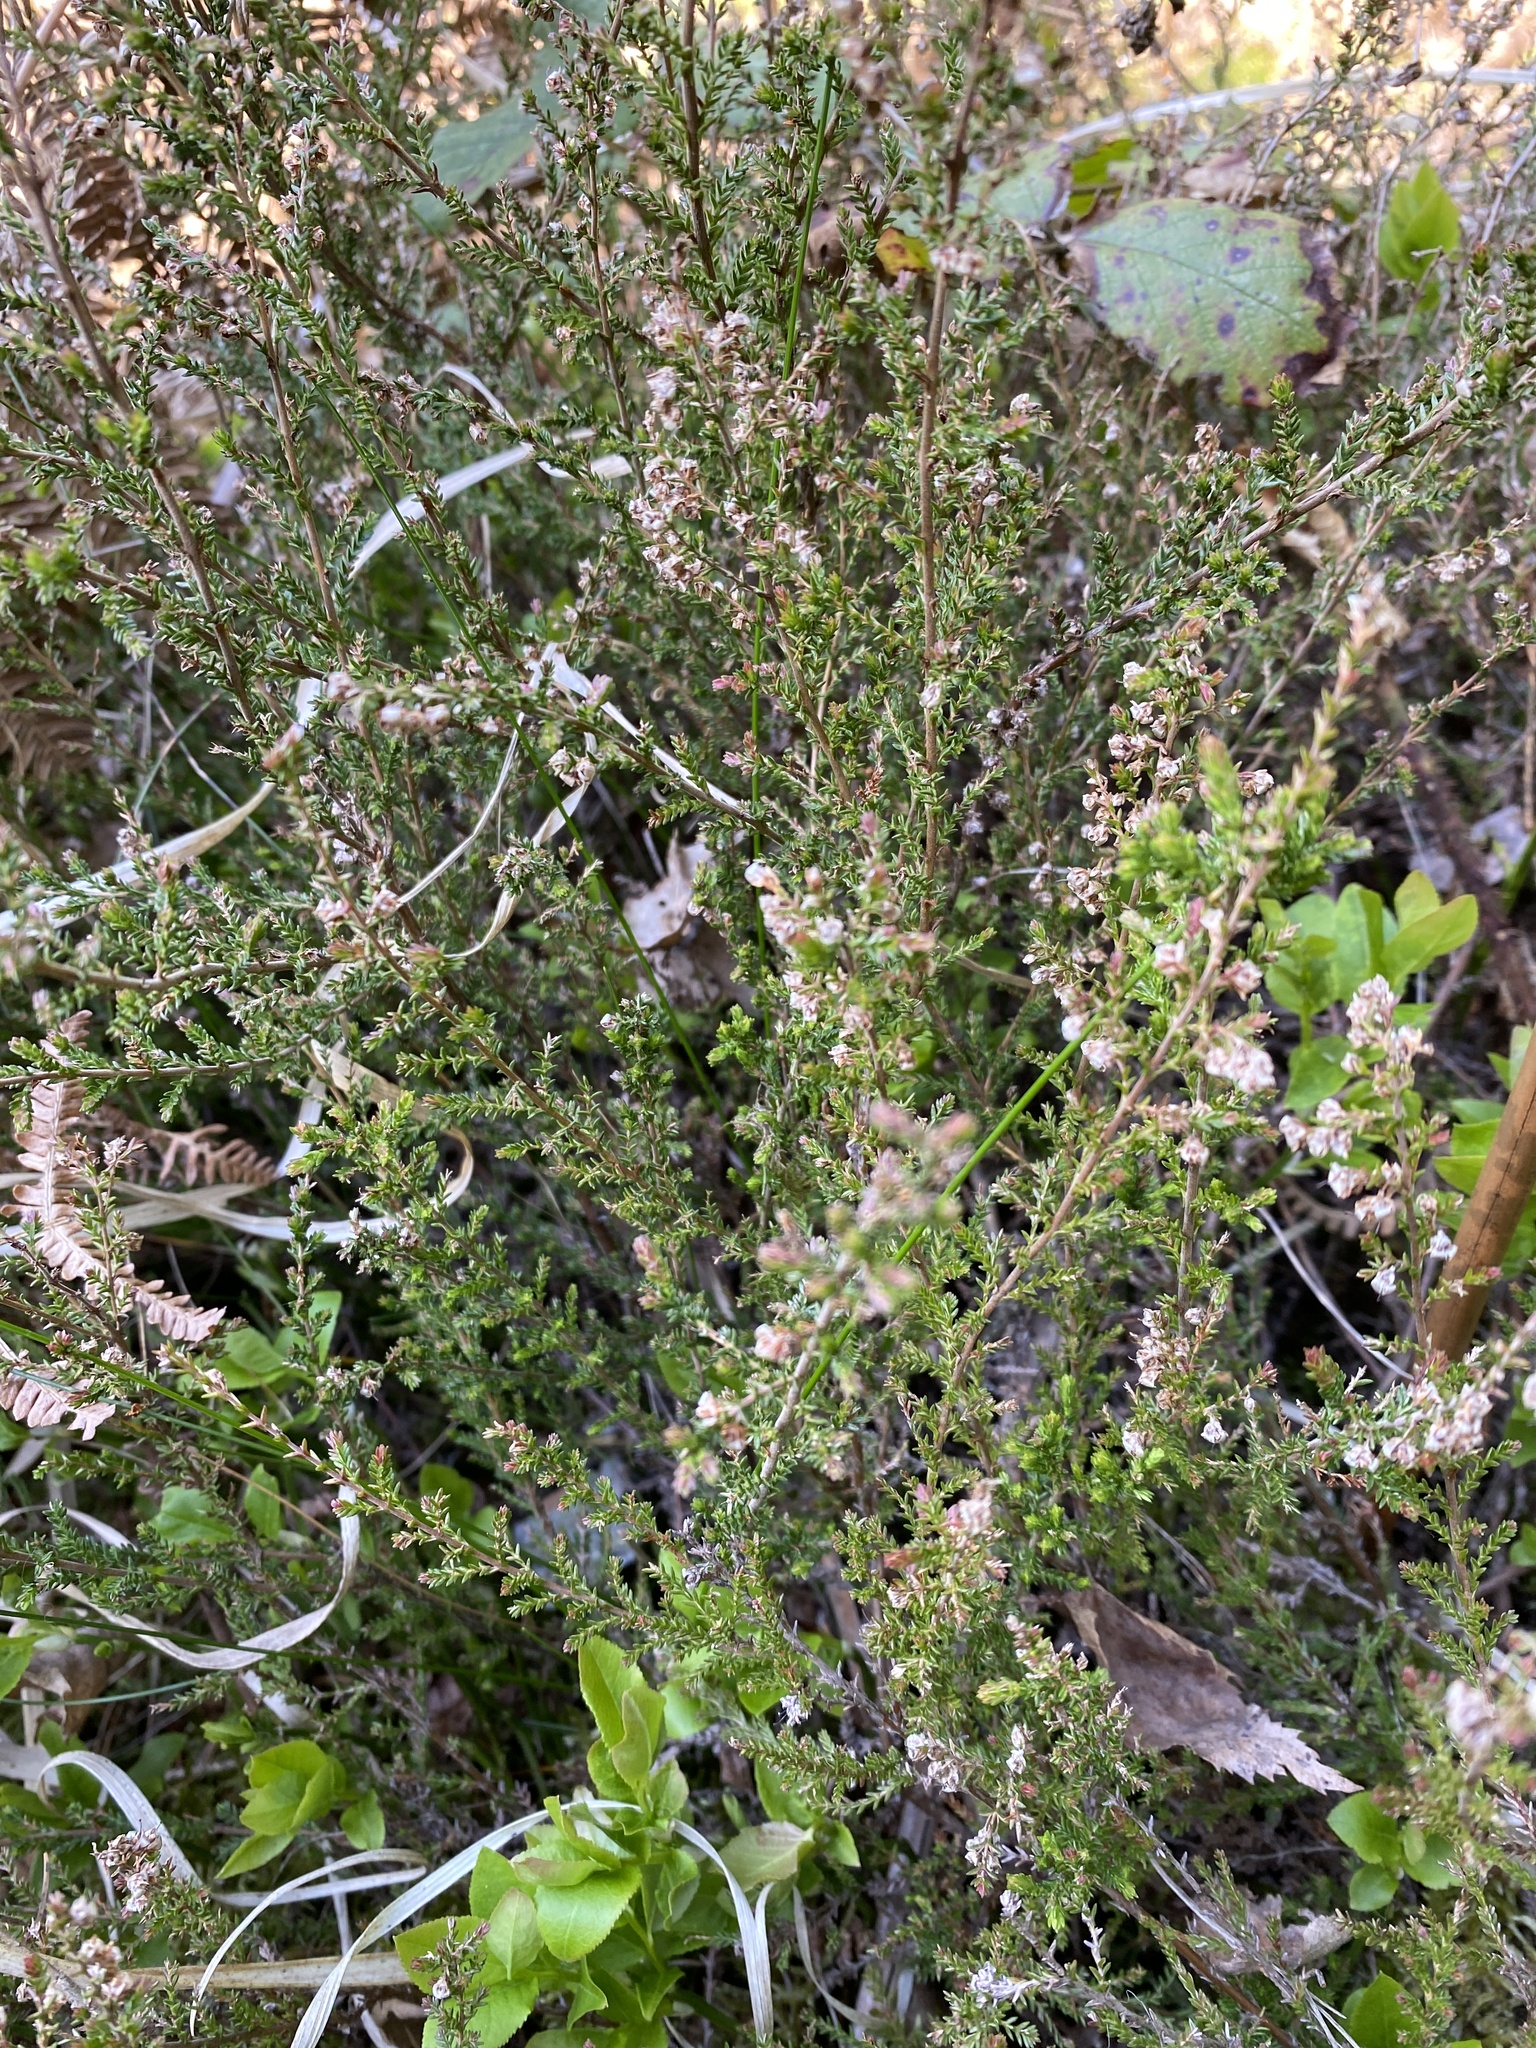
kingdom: Plantae
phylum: Tracheophyta
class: Magnoliopsida
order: Ericales
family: Ericaceae
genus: Calluna
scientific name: Calluna vulgaris
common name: Heather
